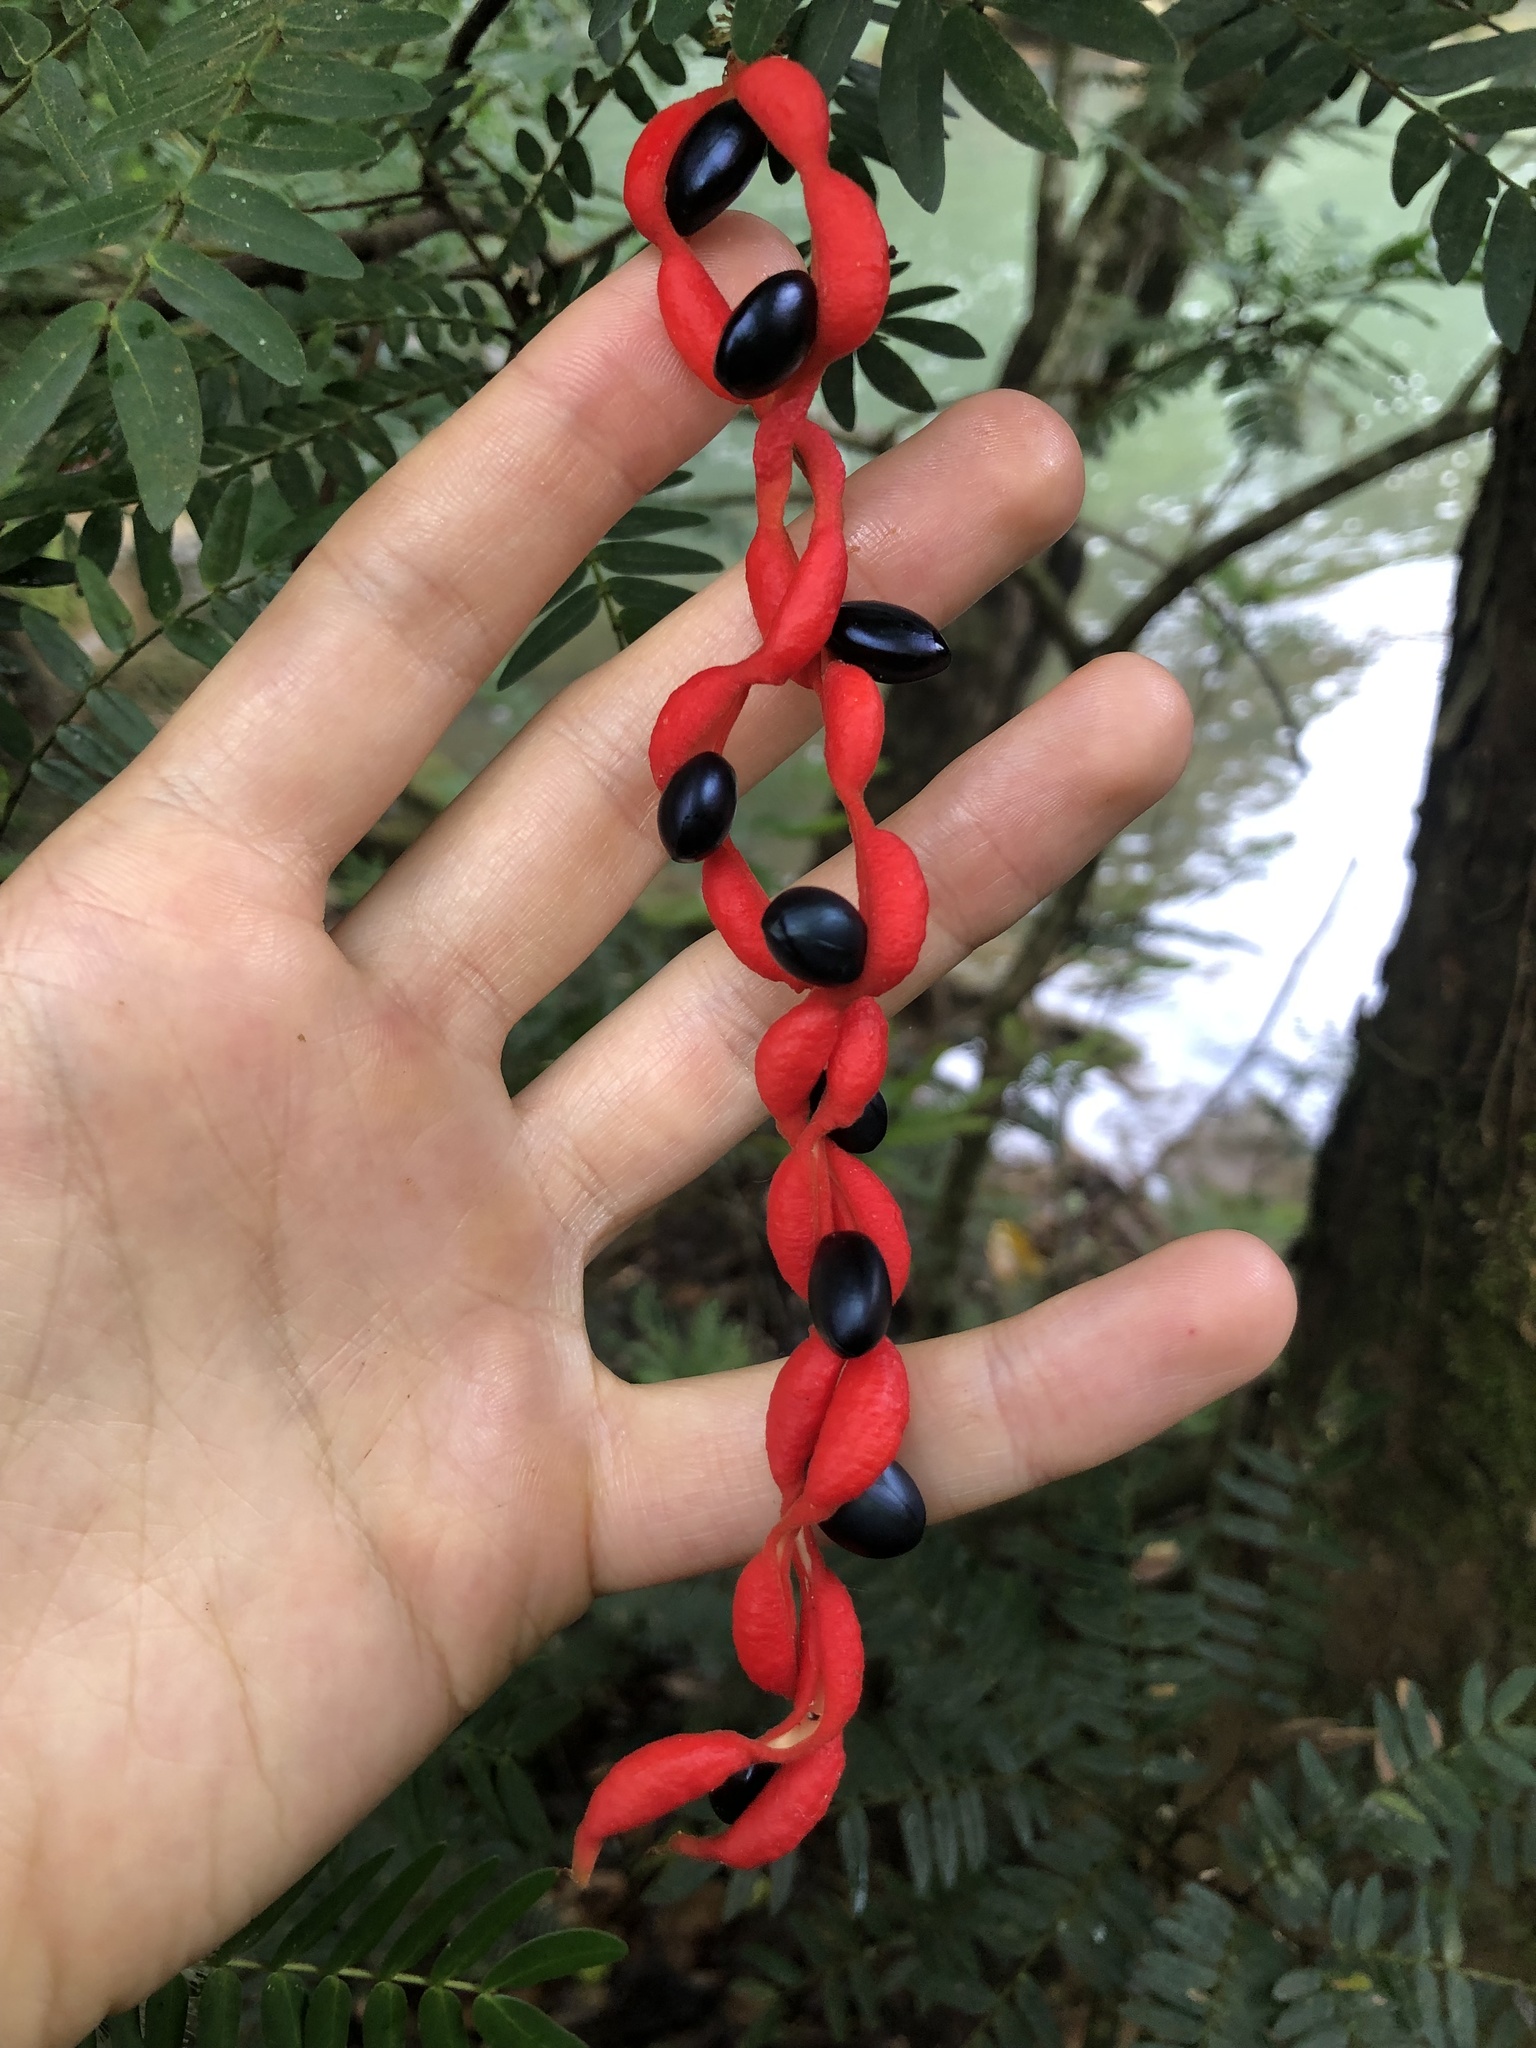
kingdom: Plantae
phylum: Tracheophyta
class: Magnoliopsida
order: Fabales
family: Fabaceae
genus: Cojoba
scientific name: Cojoba arborea
